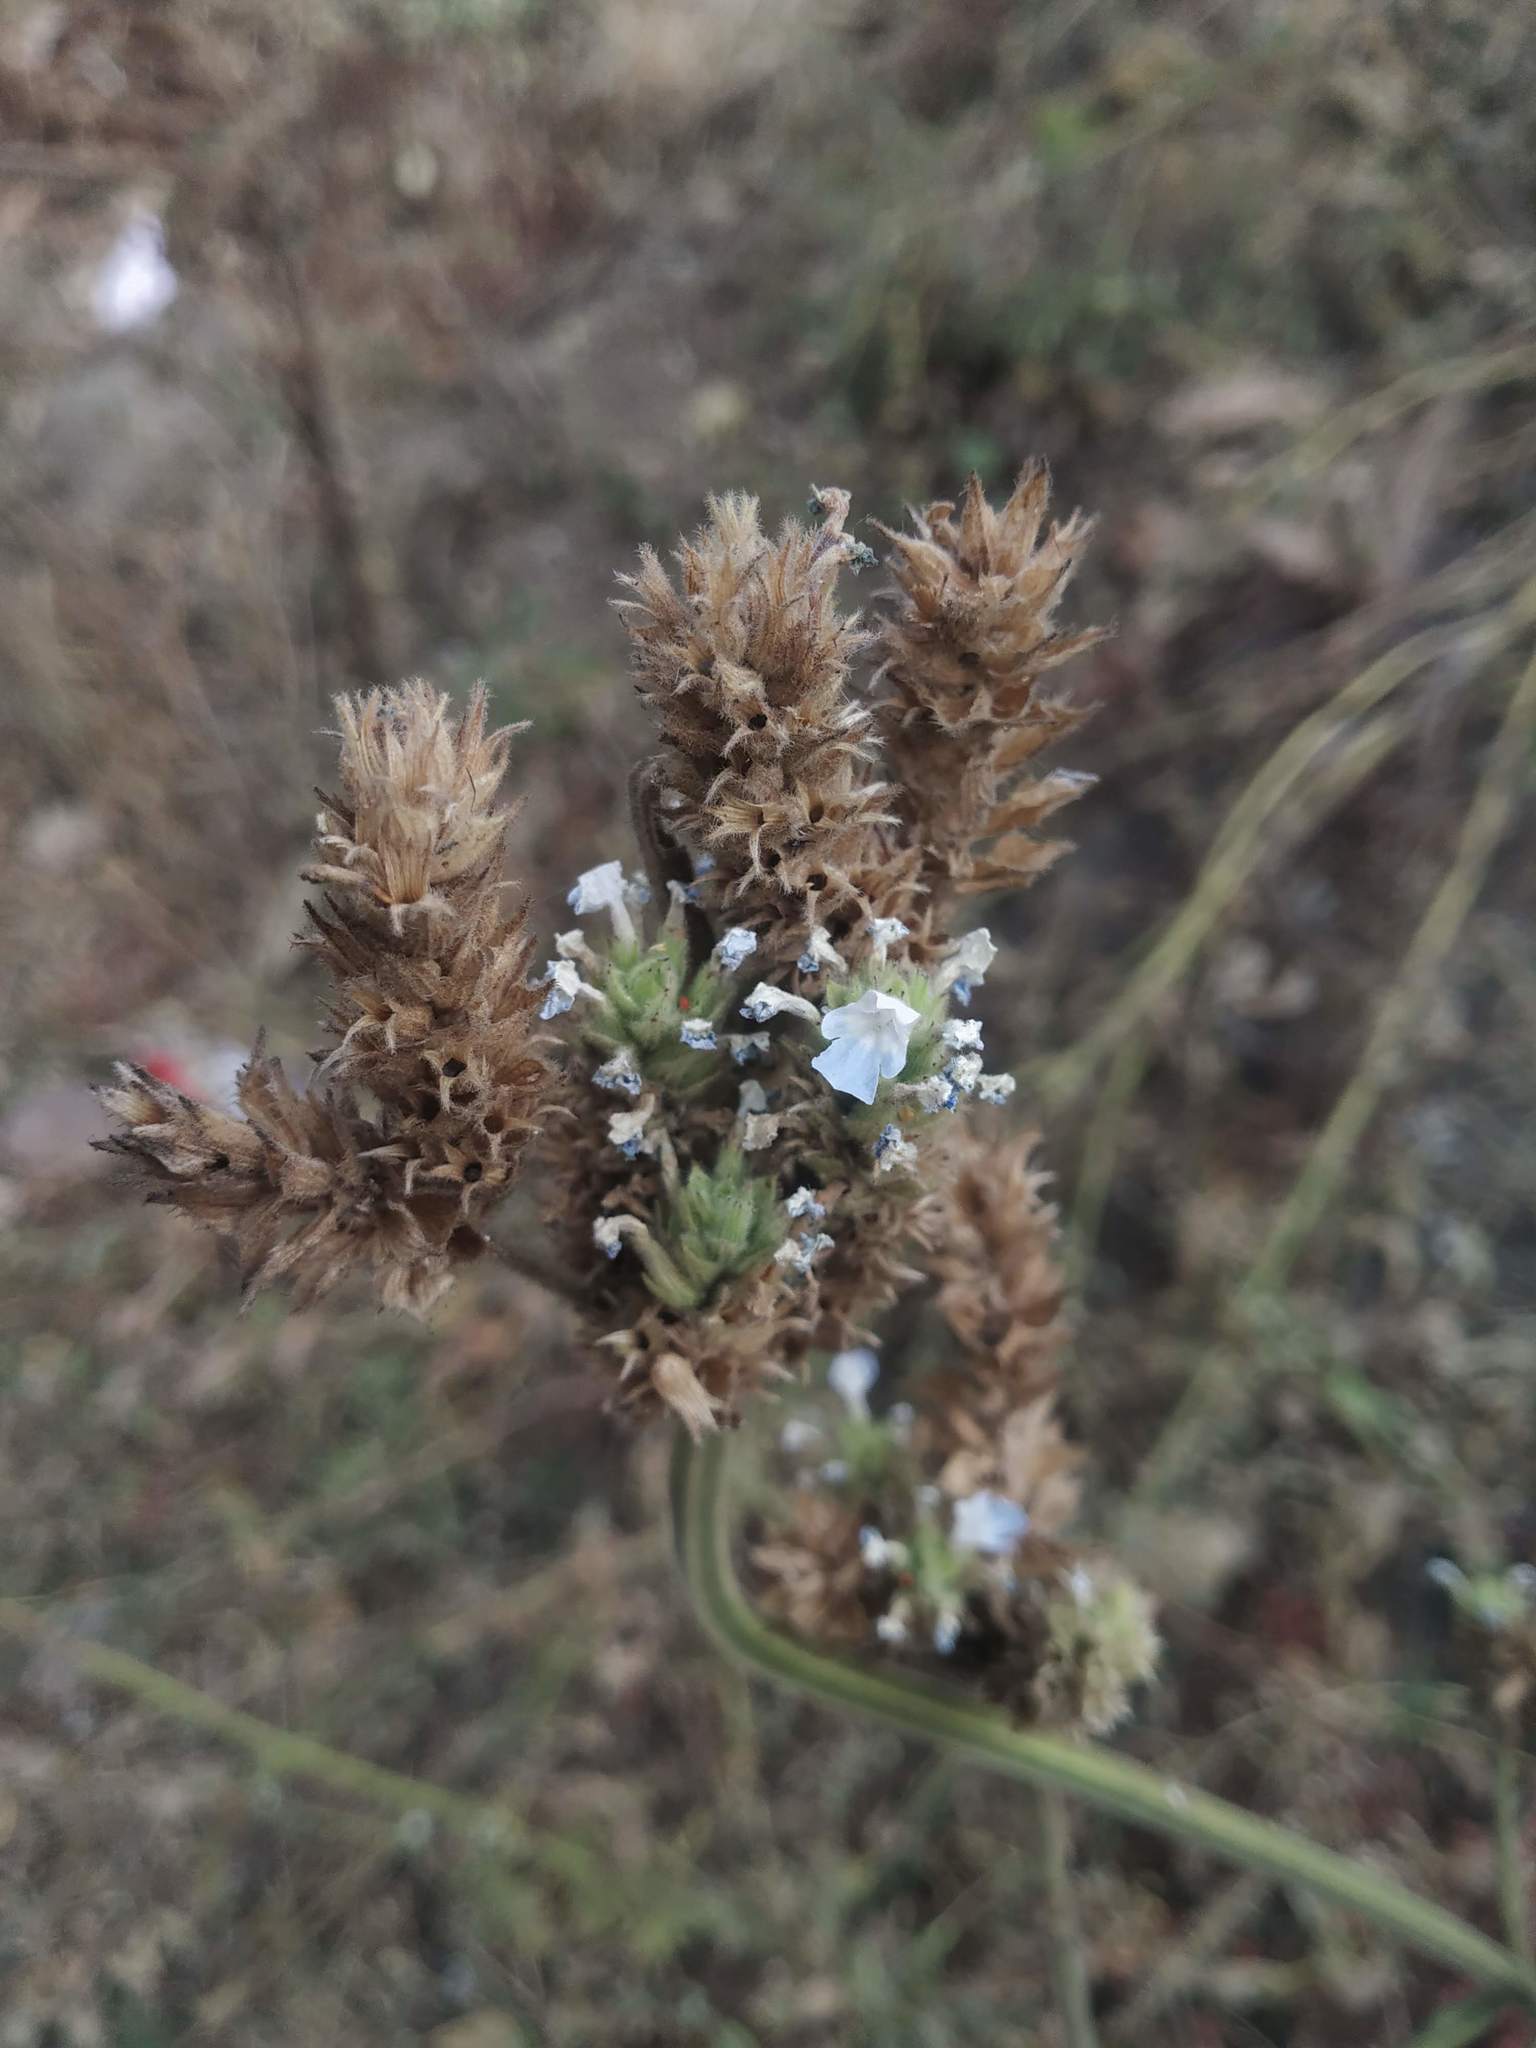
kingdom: Plantae
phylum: Tracheophyta
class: Magnoliopsida
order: Lamiales
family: Lamiaceae
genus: Lavandula
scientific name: Lavandula gibsonii
